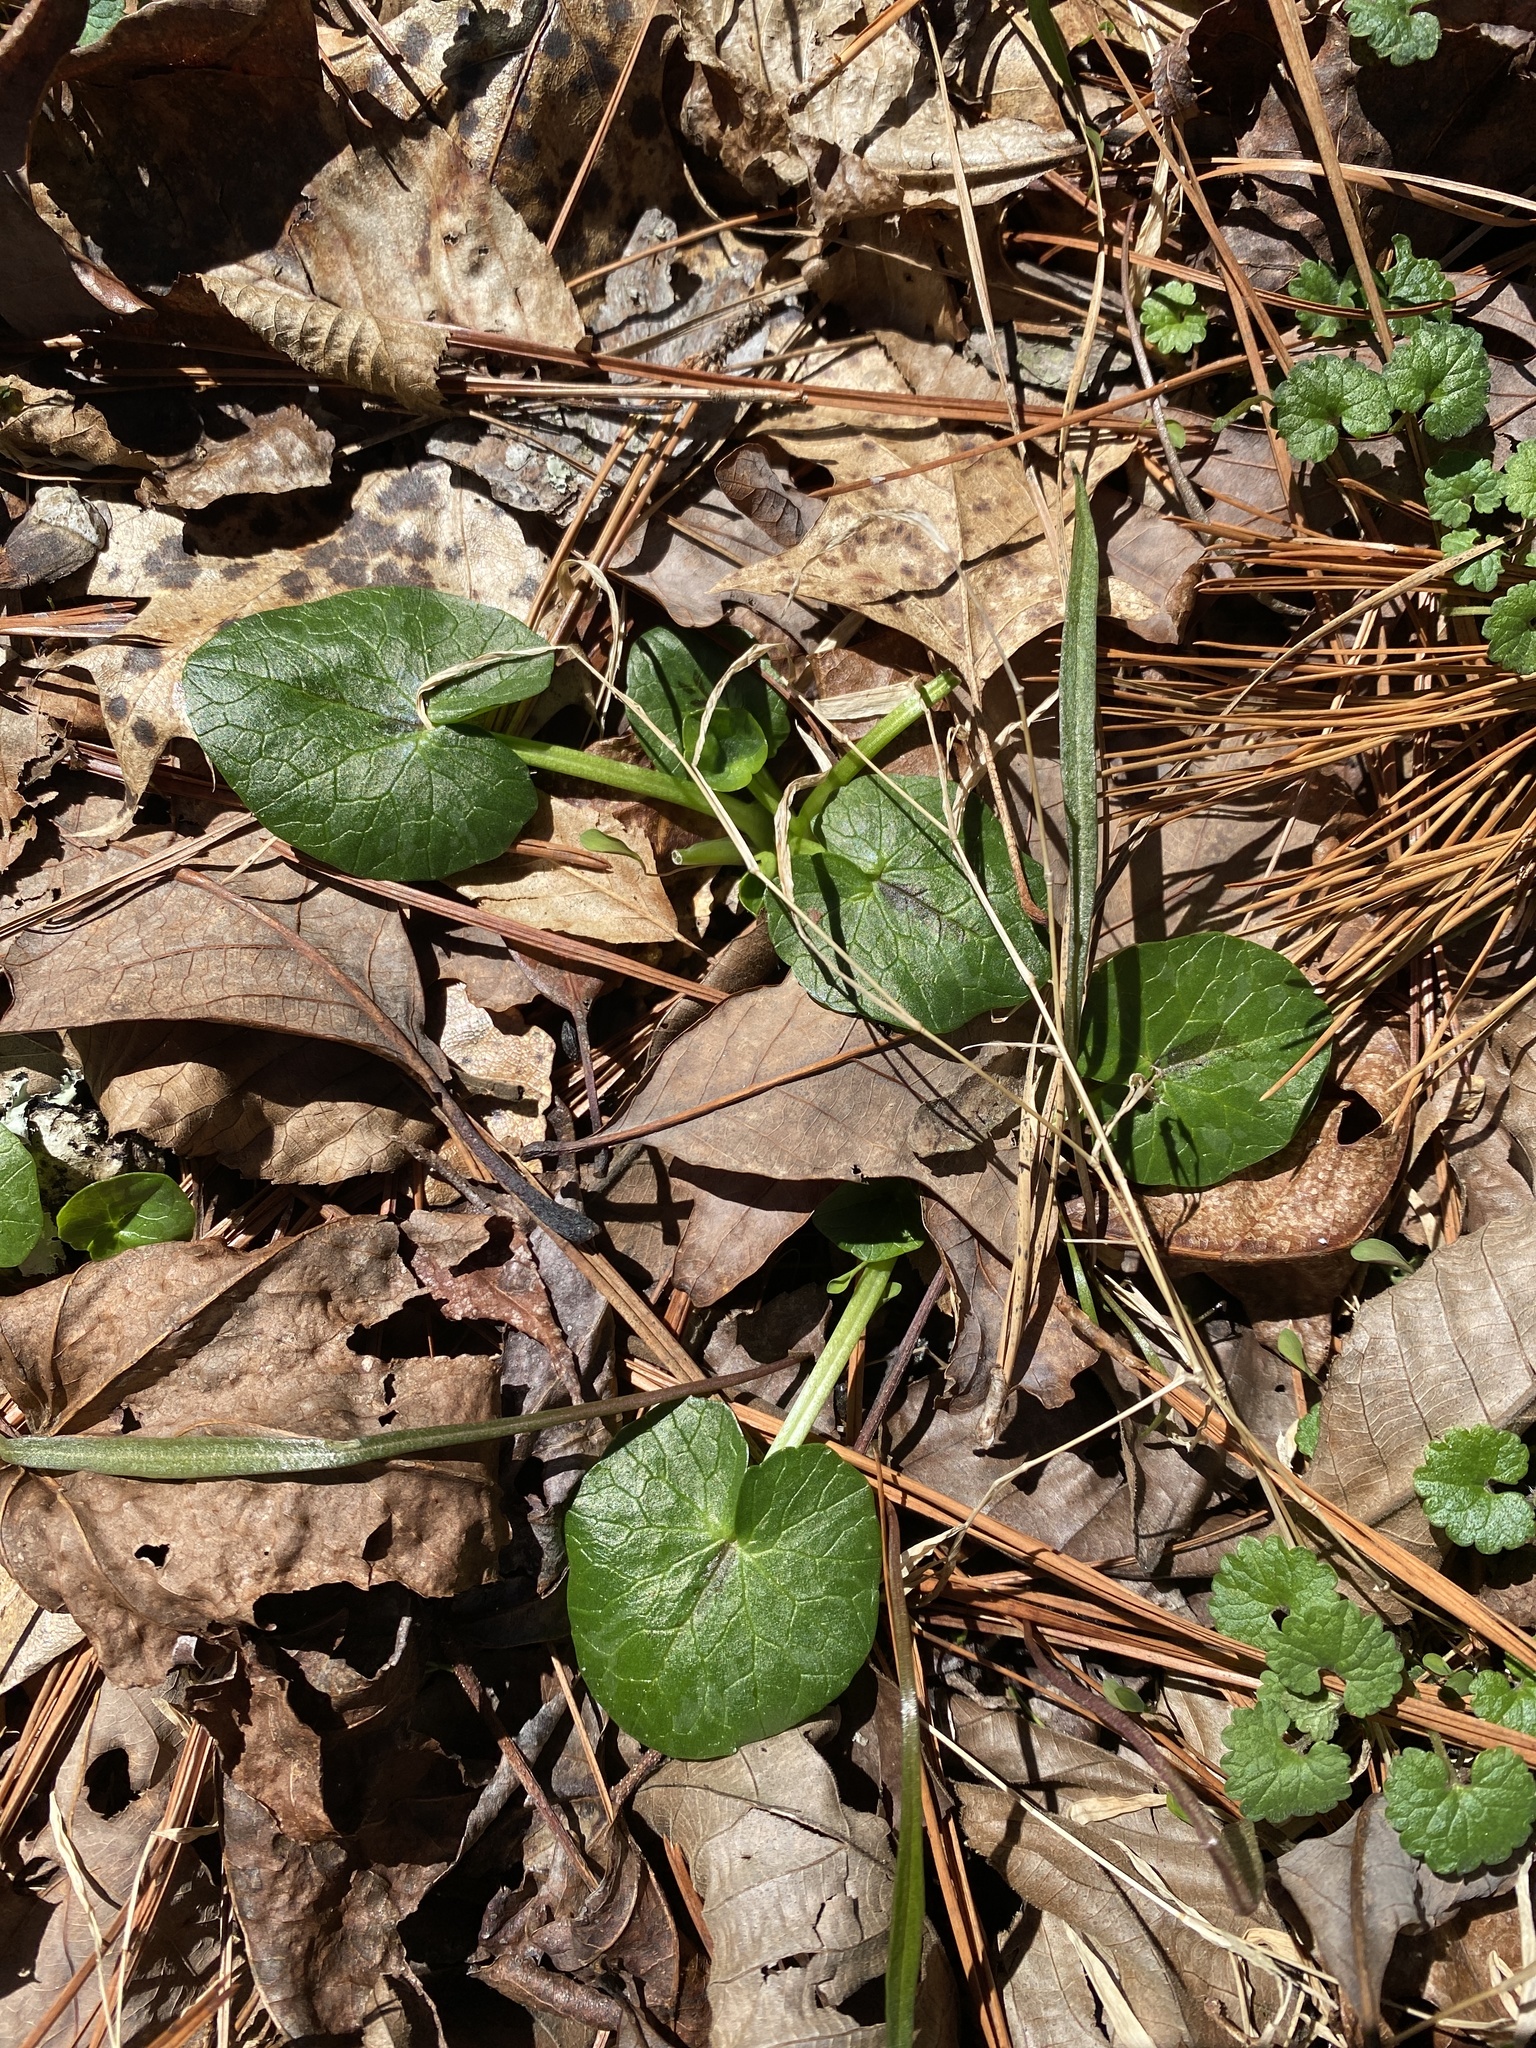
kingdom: Plantae
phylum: Tracheophyta
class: Magnoliopsida
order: Ranunculales
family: Ranunculaceae
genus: Ficaria
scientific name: Ficaria verna
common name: Lesser celandine
